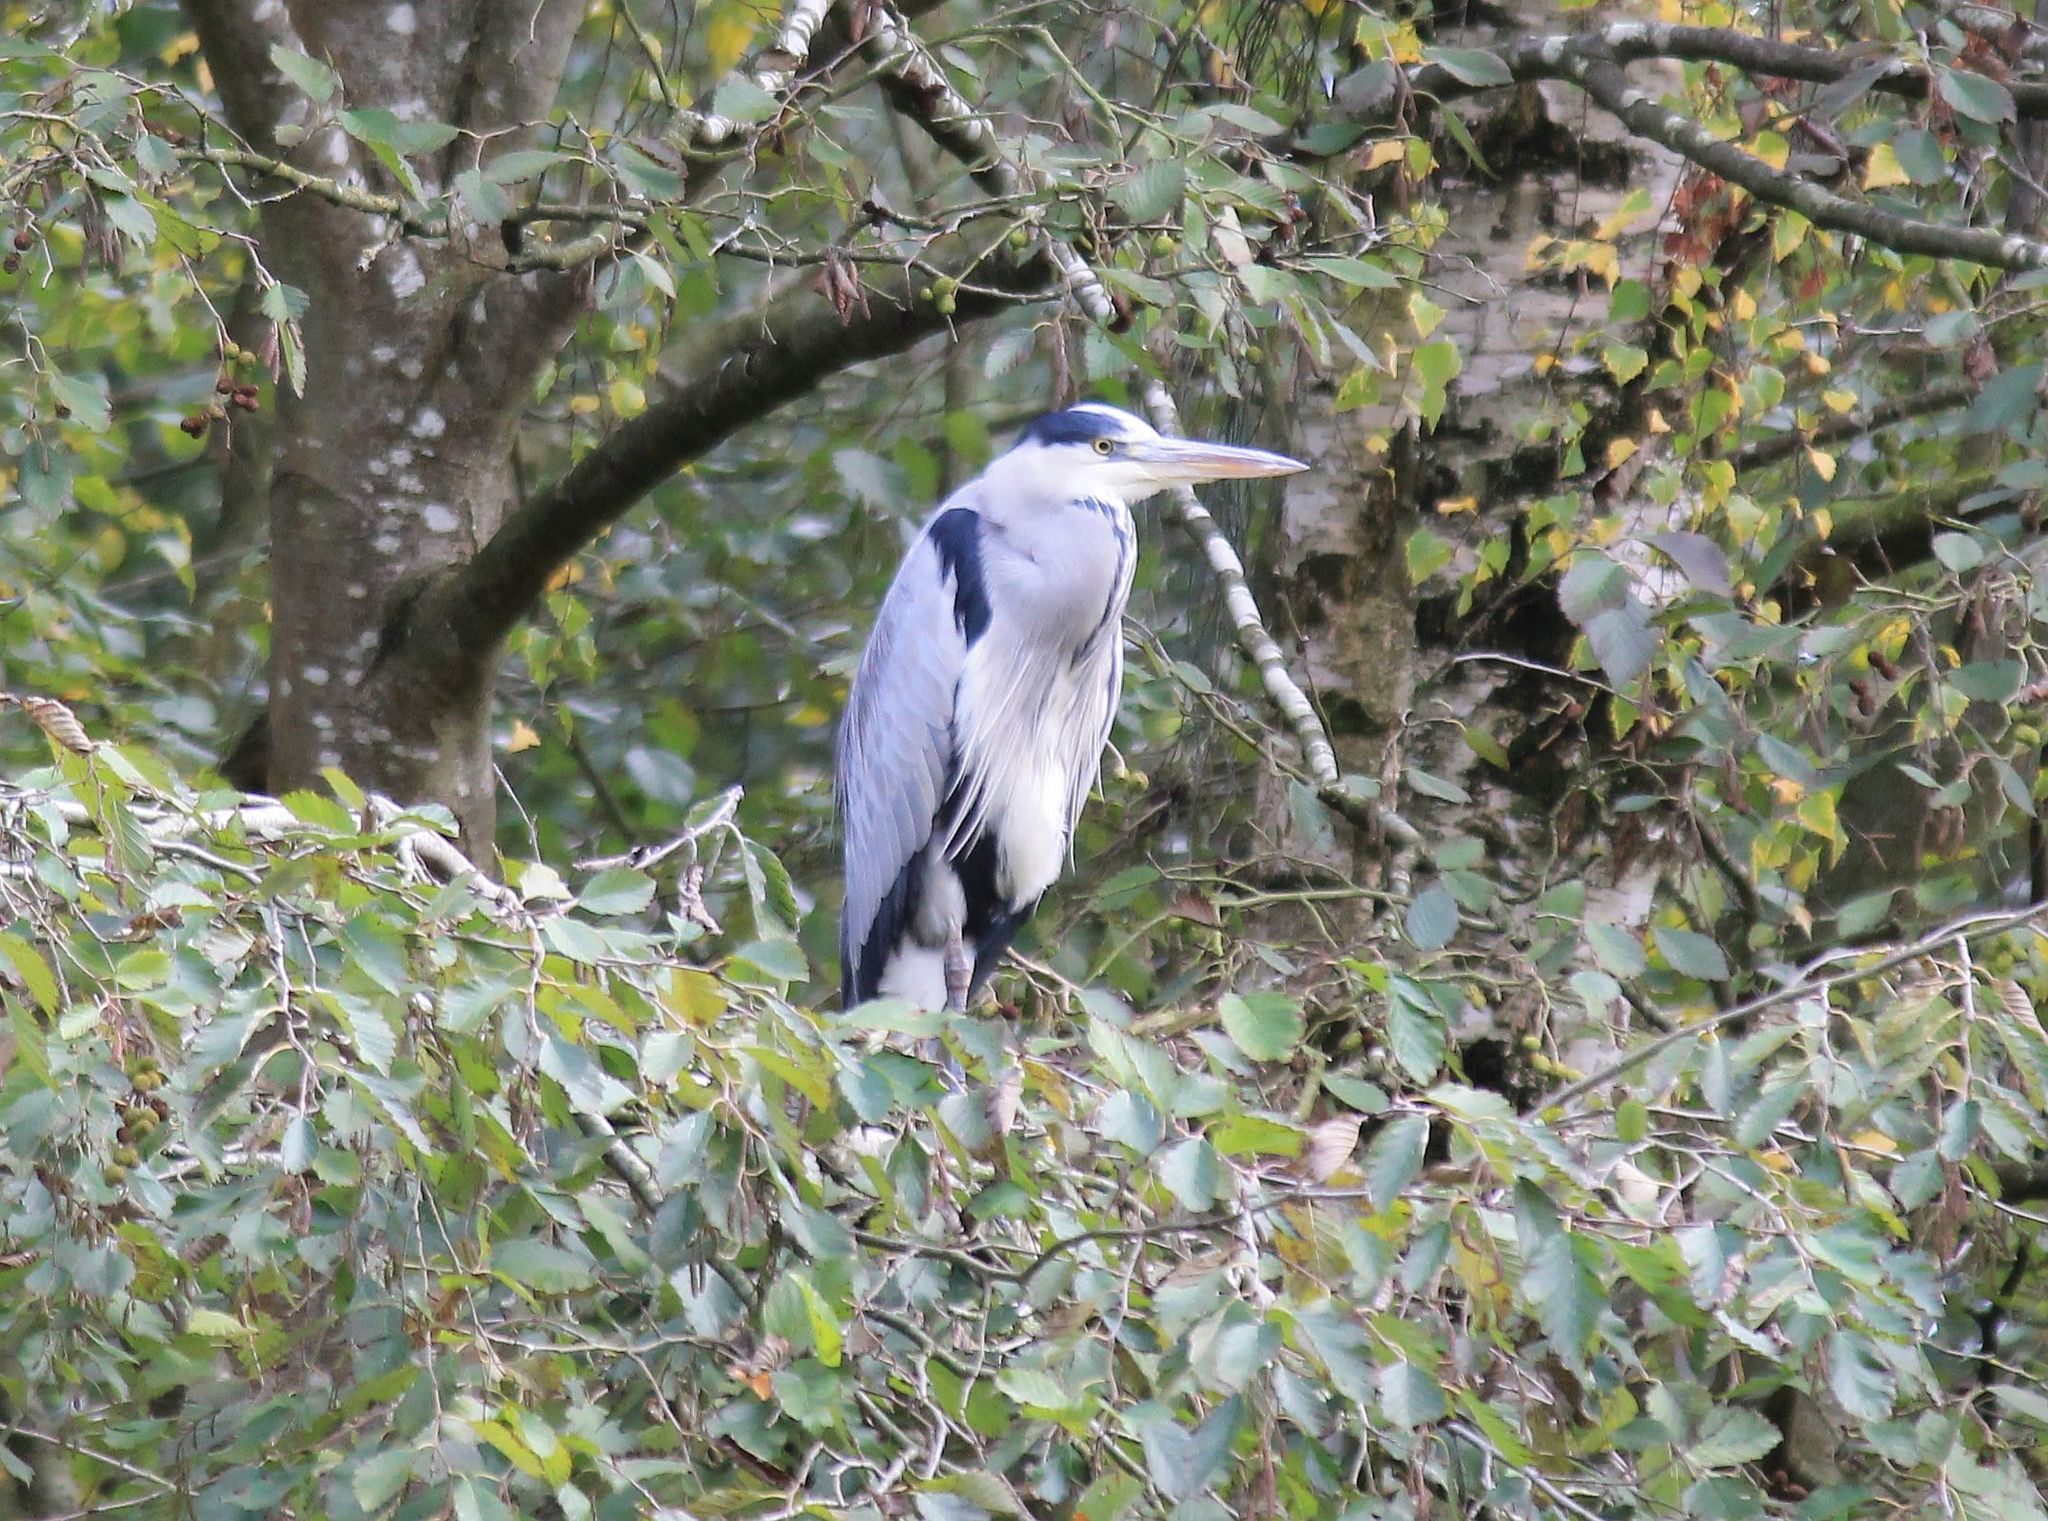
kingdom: Animalia
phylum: Chordata
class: Aves
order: Pelecaniformes
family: Ardeidae
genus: Ardea
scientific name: Ardea cinerea
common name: Grey heron
